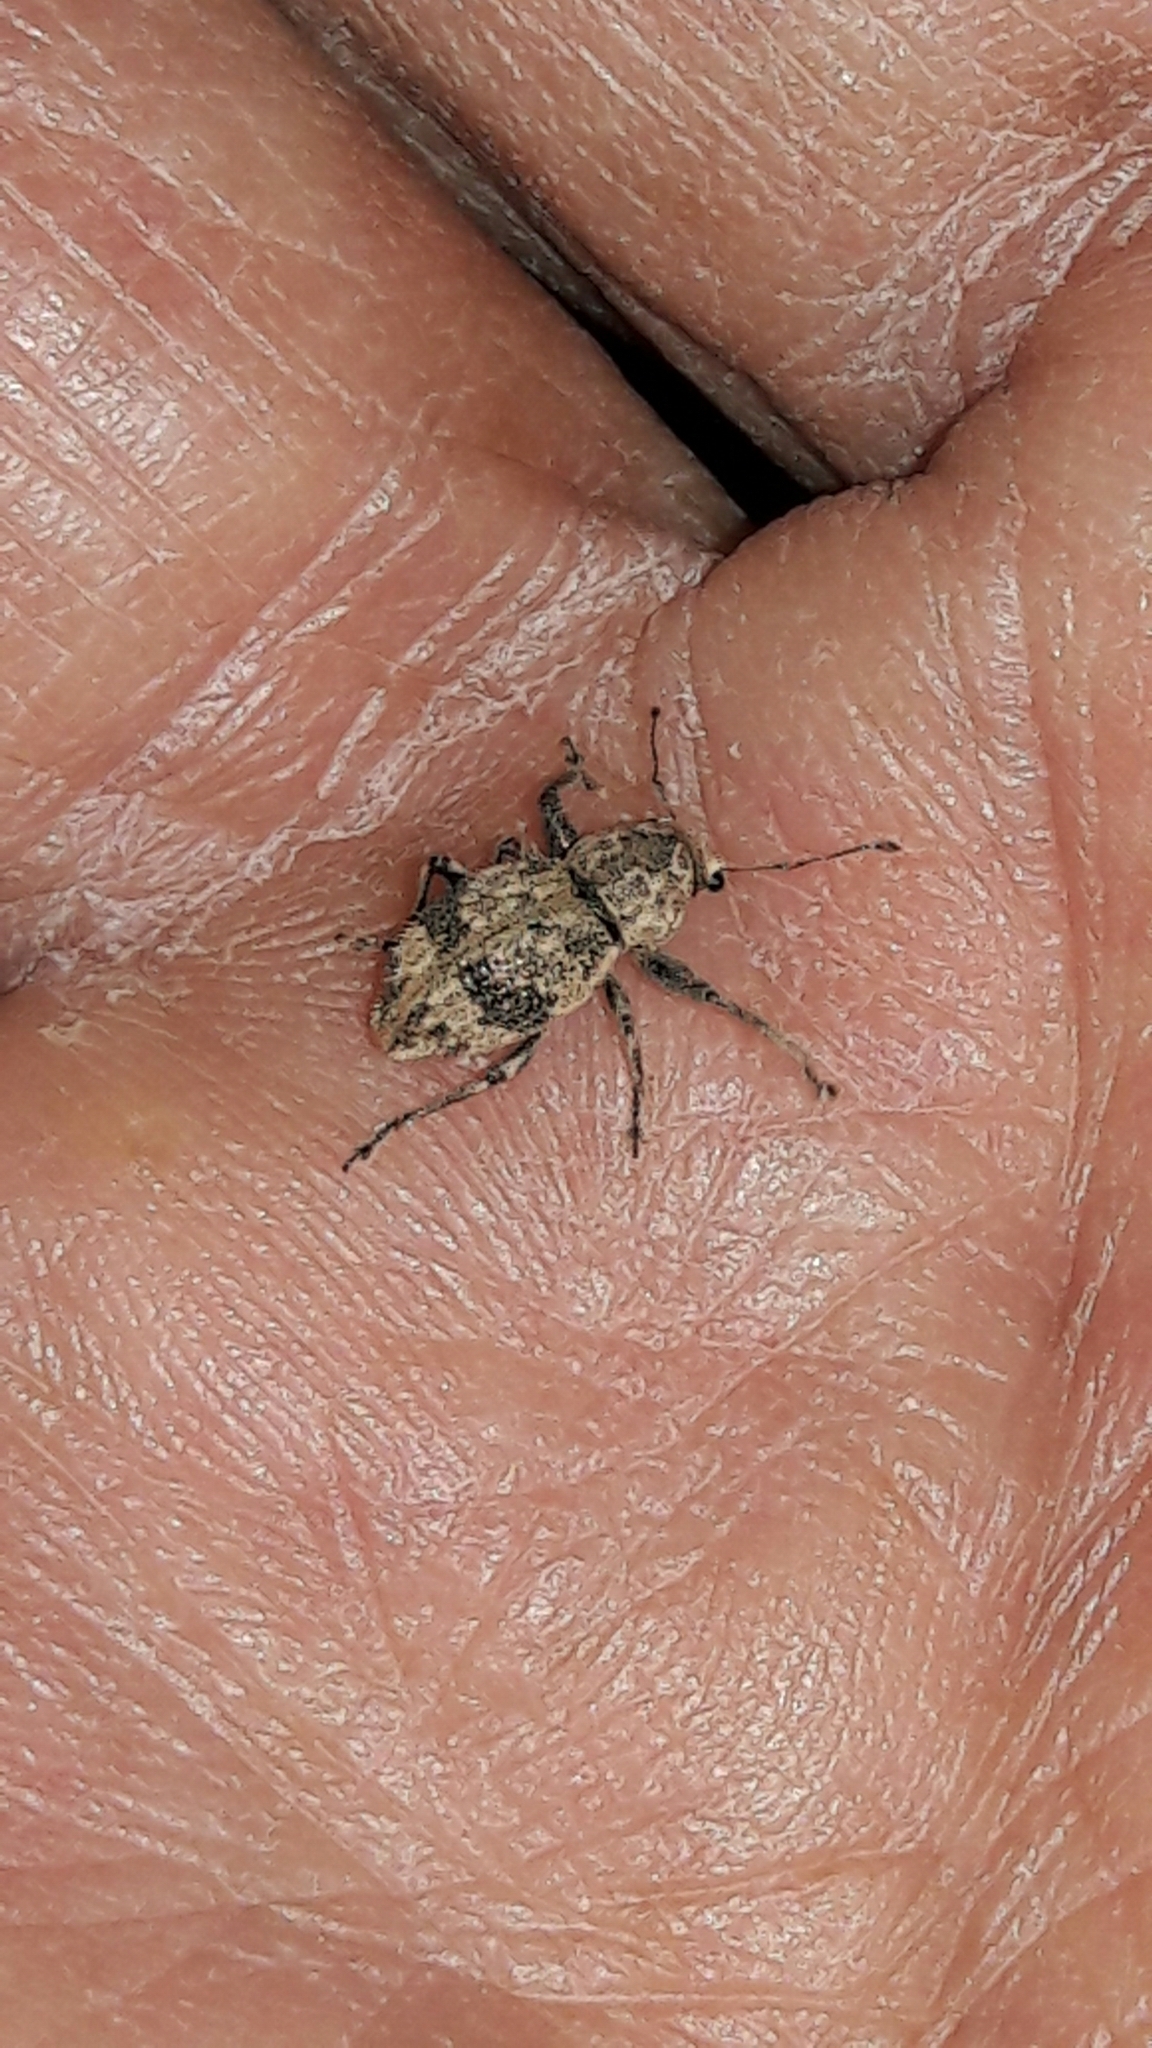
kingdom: Animalia
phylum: Arthropoda
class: Insecta
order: Coleoptera
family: Curculionidae
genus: Pantomorus
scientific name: Pantomorus
